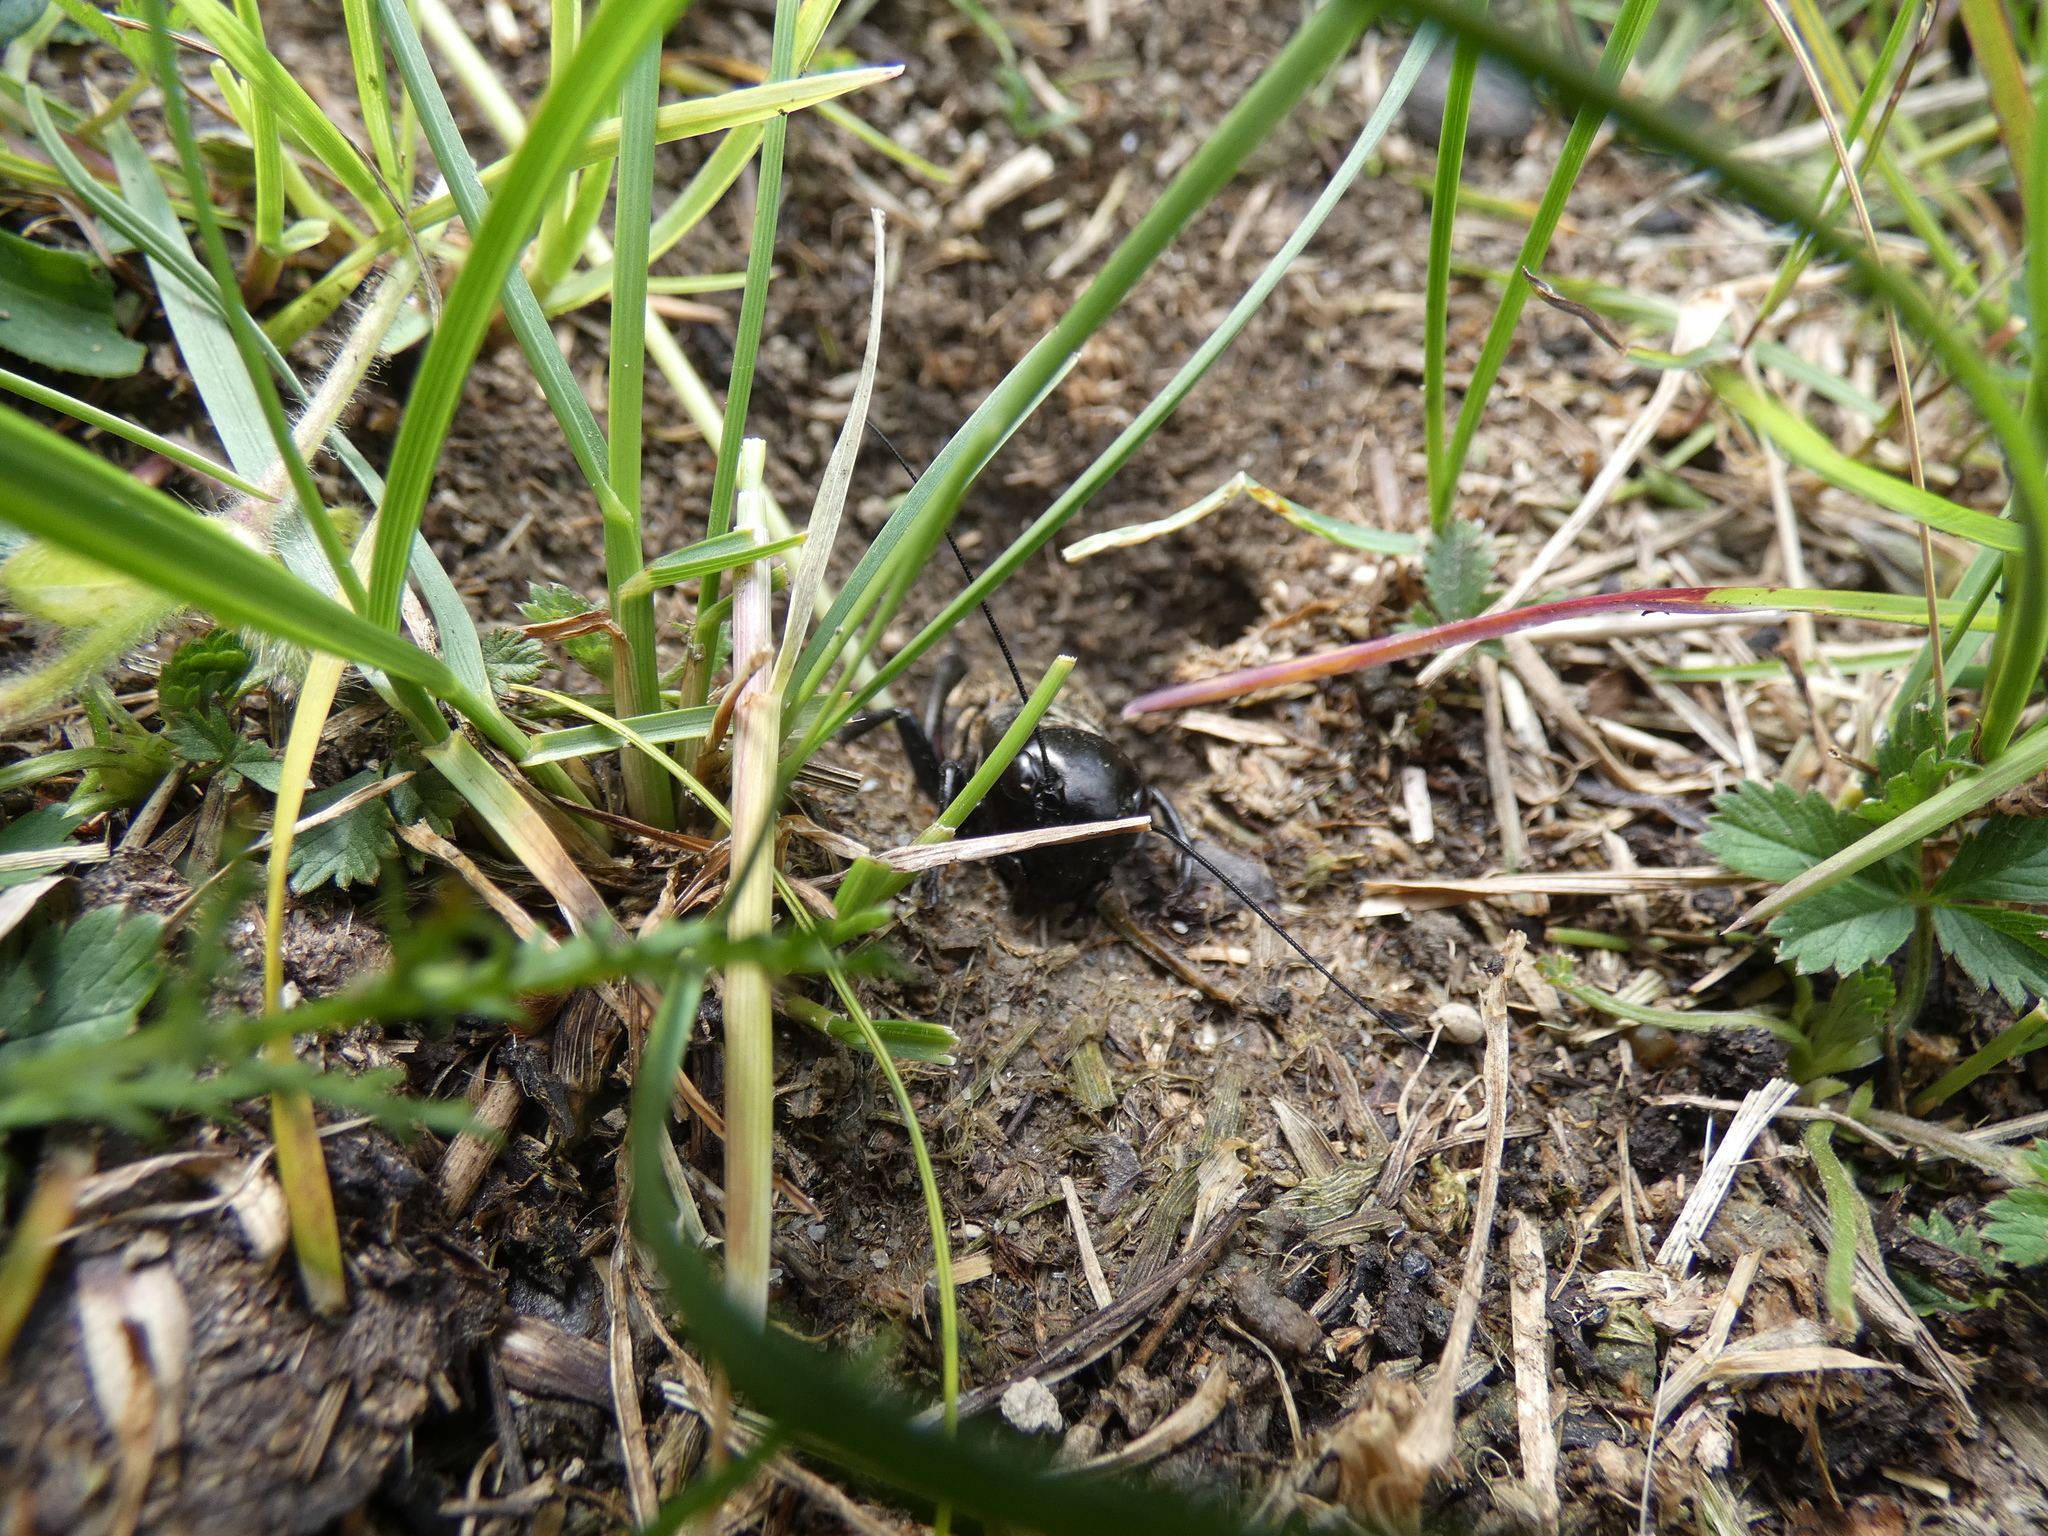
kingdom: Animalia
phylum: Arthropoda
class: Insecta
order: Orthoptera
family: Gryllidae
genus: Gryllus
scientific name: Gryllus campestris
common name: Field cricket
